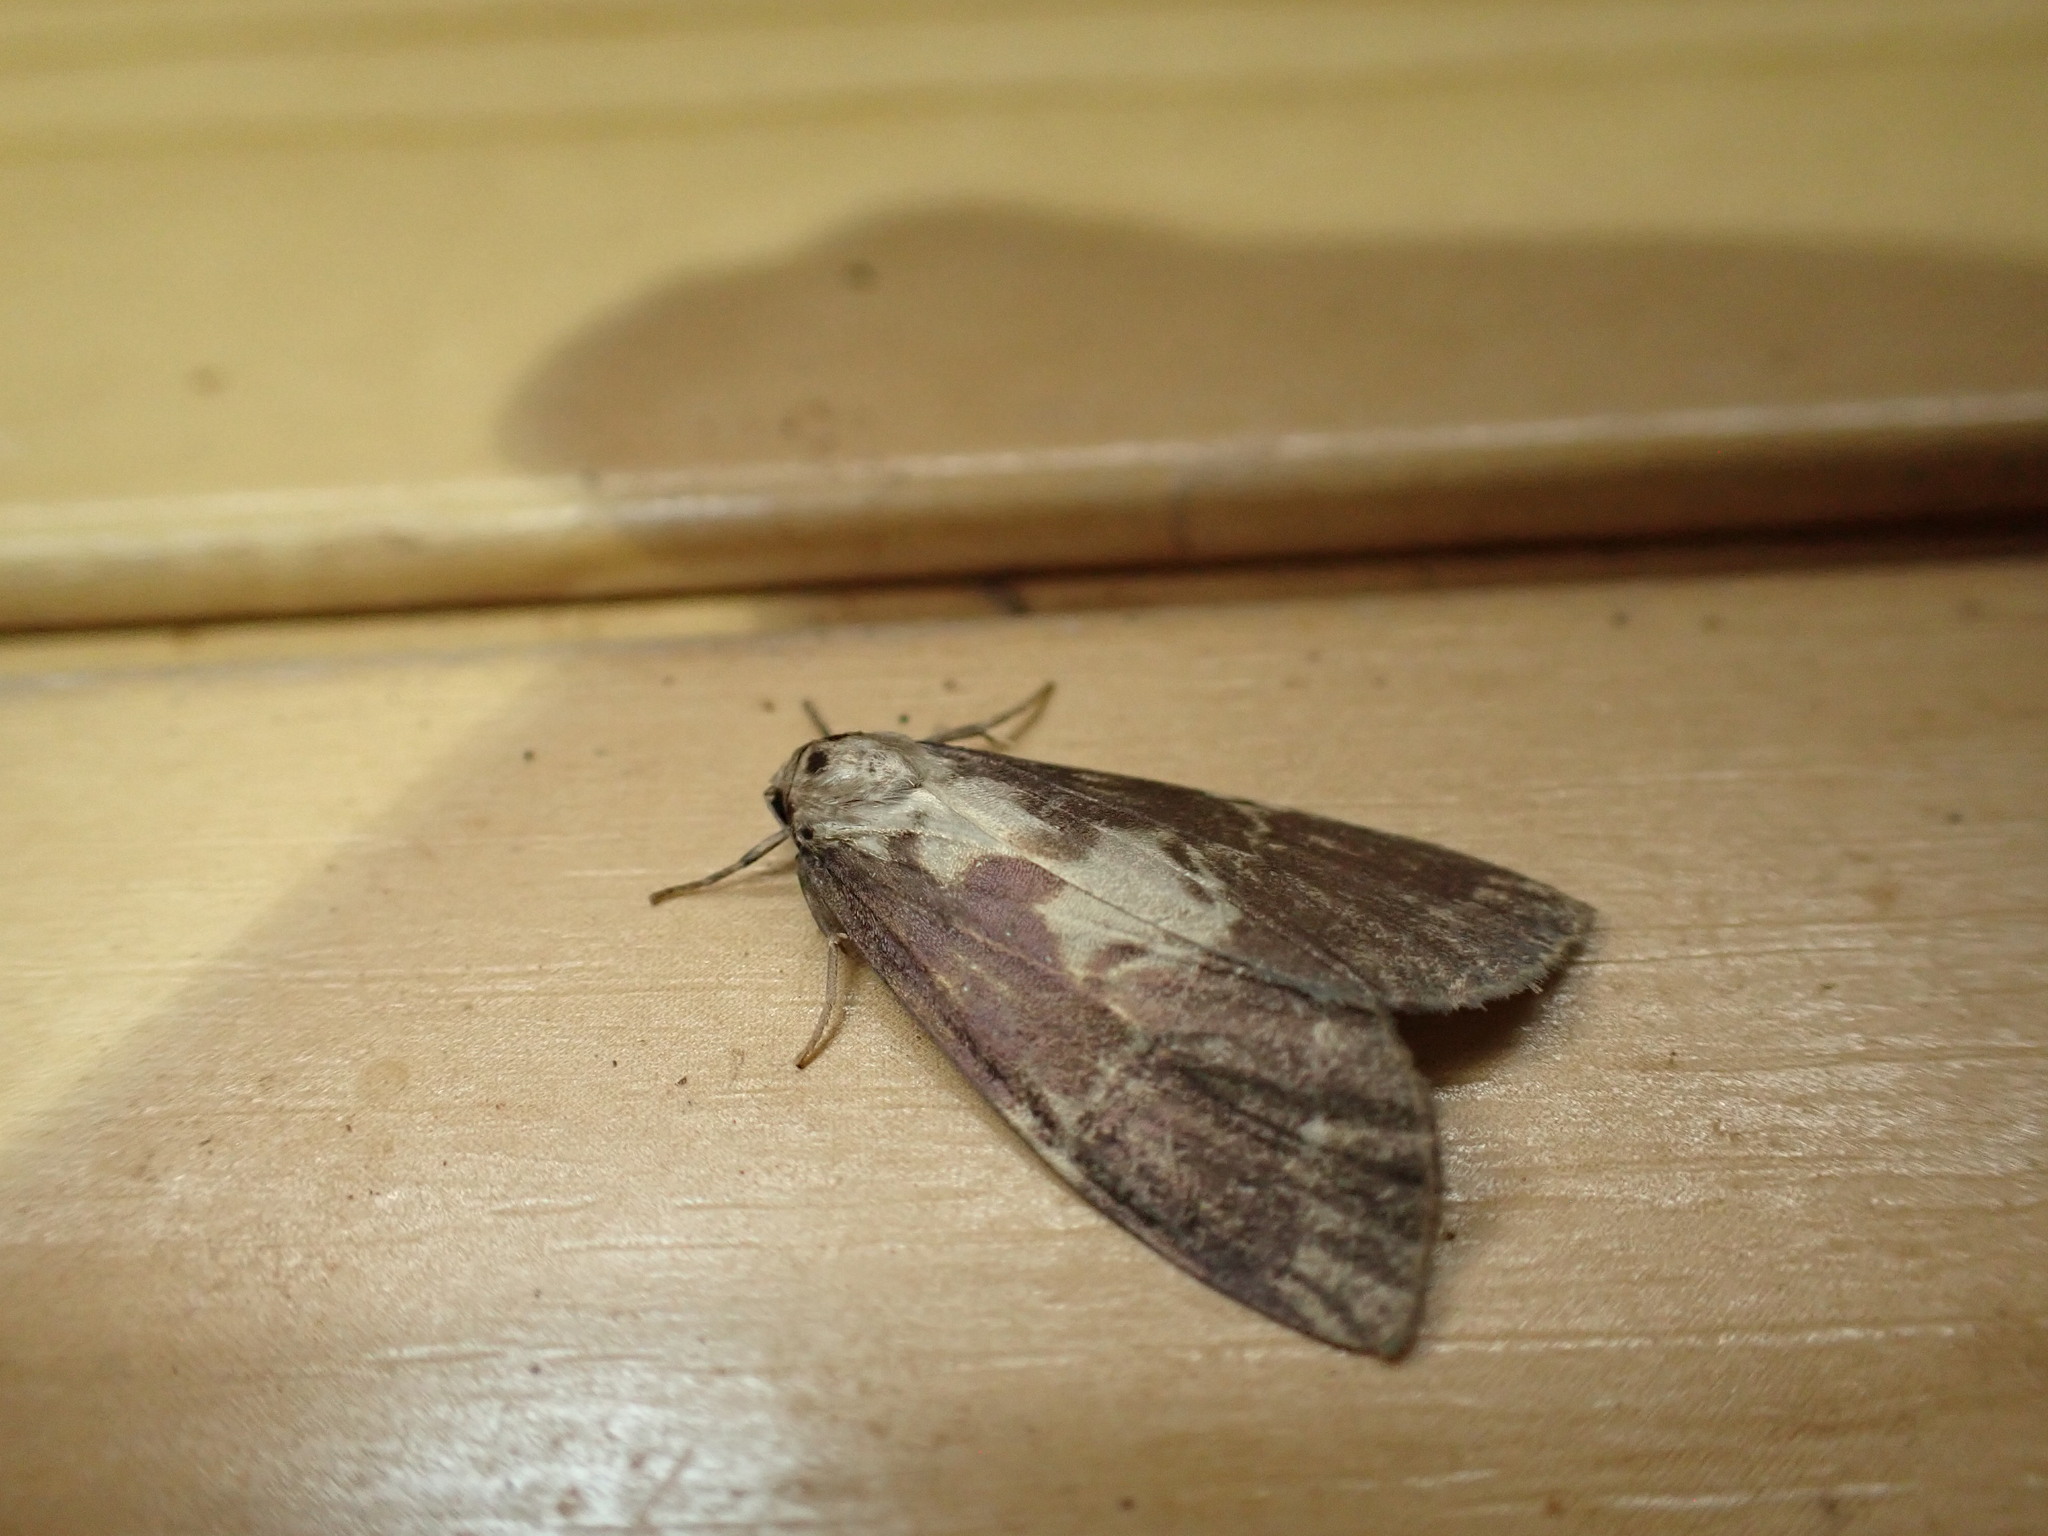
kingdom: Animalia
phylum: Arthropoda
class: Insecta
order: Lepidoptera
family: Erebidae
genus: Barsura
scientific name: Barsura albidorsalis
